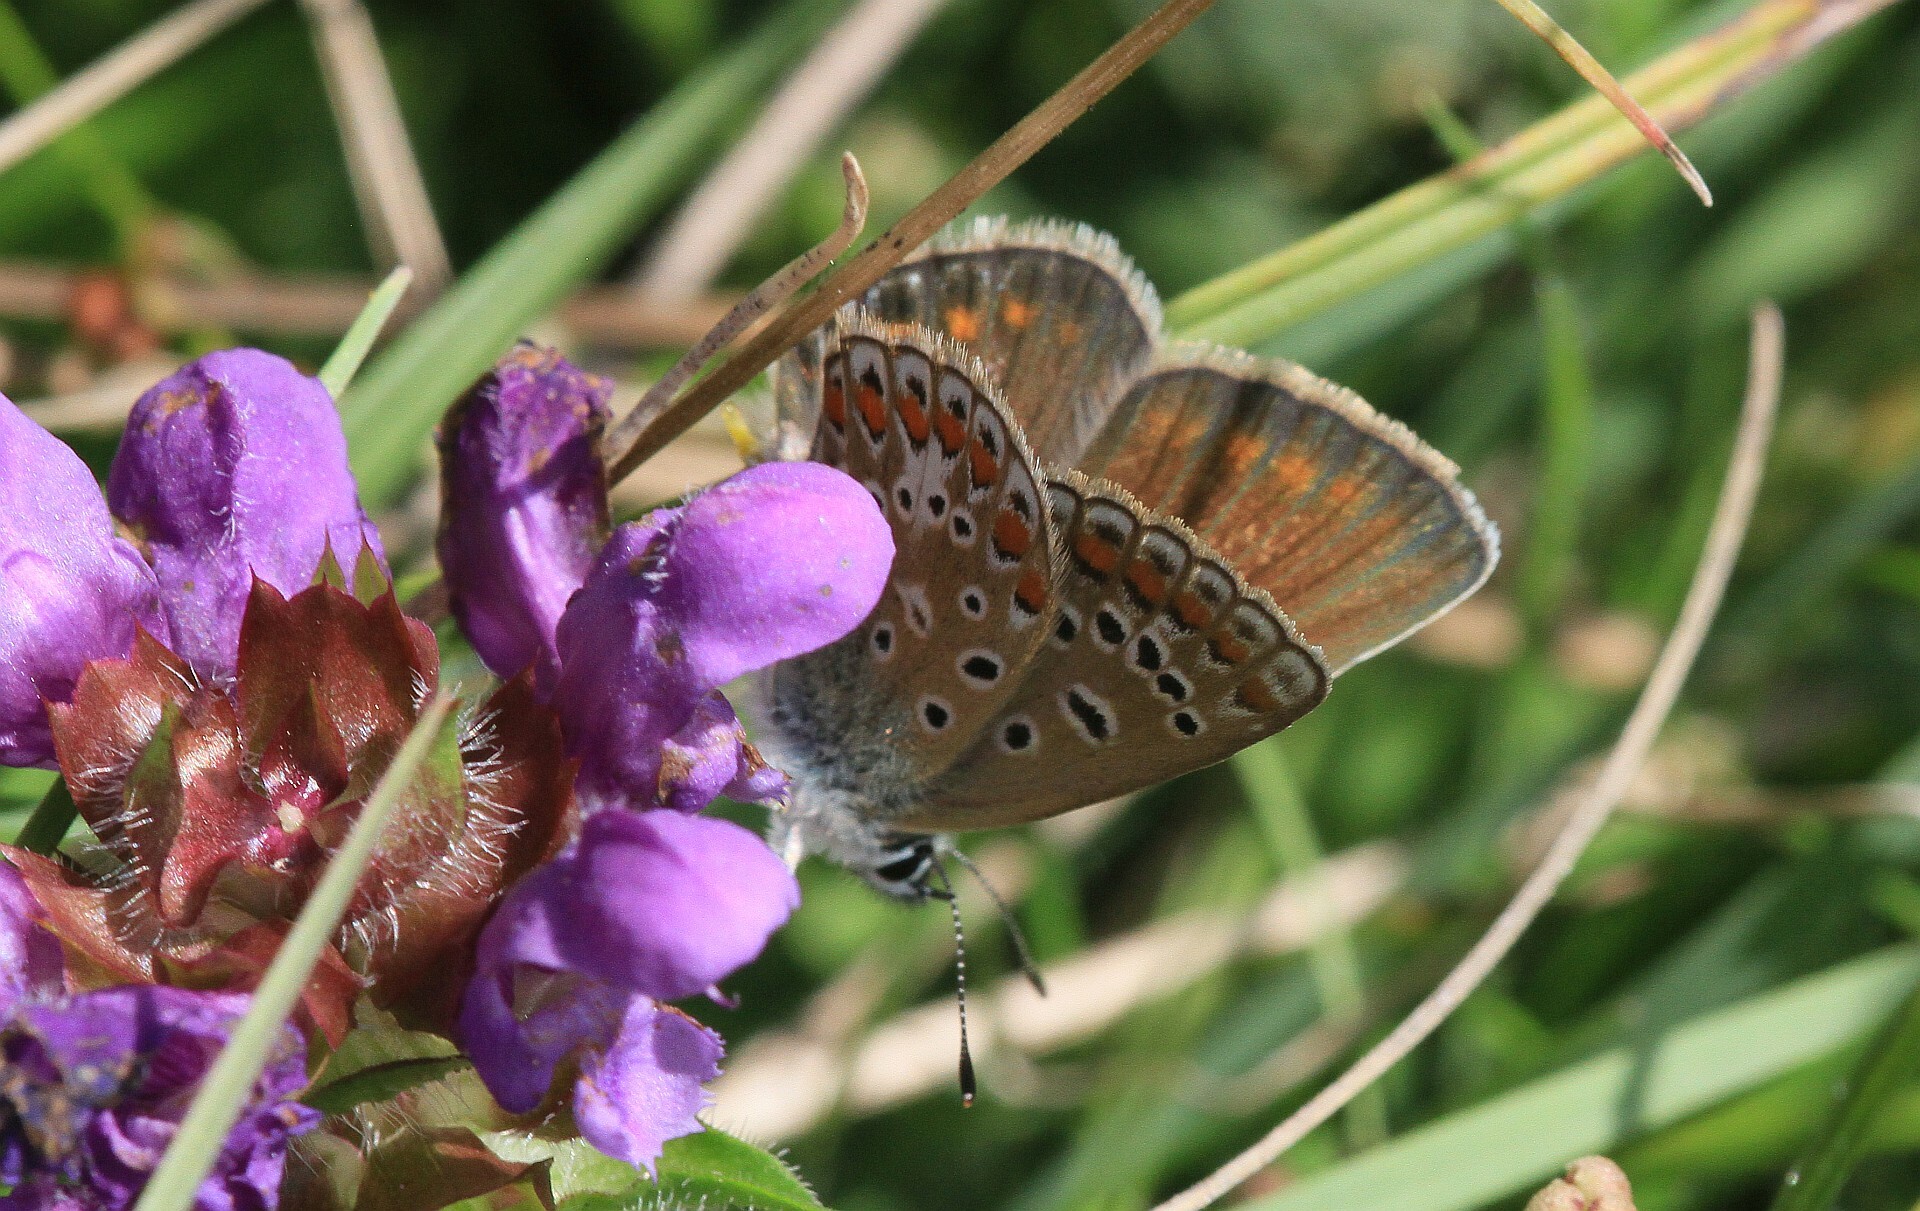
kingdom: Animalia
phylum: Arthropoda
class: Insecta
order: Lepidoptera
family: Lycaenidae
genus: Polyommatus
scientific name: Polyommatus icarus
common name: Common blue
